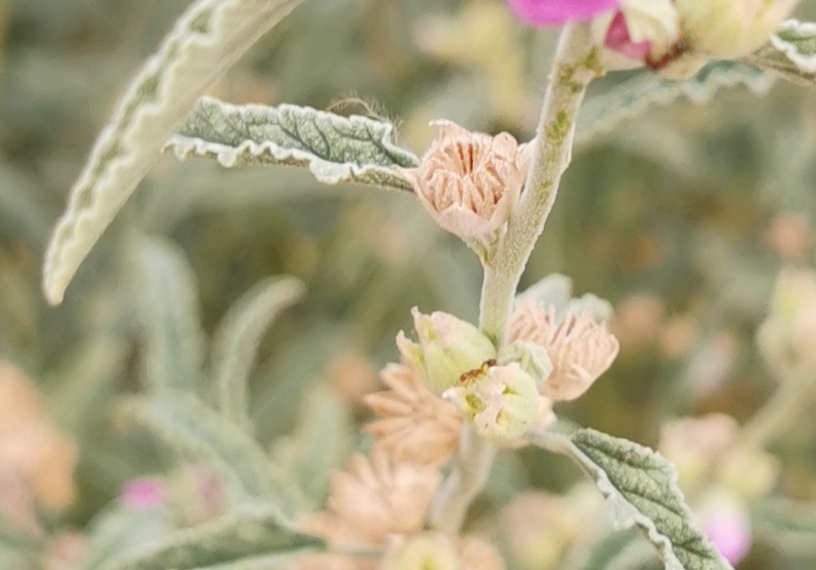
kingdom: Plantae
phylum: Tracheophyta
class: Magnoliopsida
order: Malvales
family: Malvaceae
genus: Sphaeralcea
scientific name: Sphaeralcea angustifolia
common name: Copper globe-mallow
